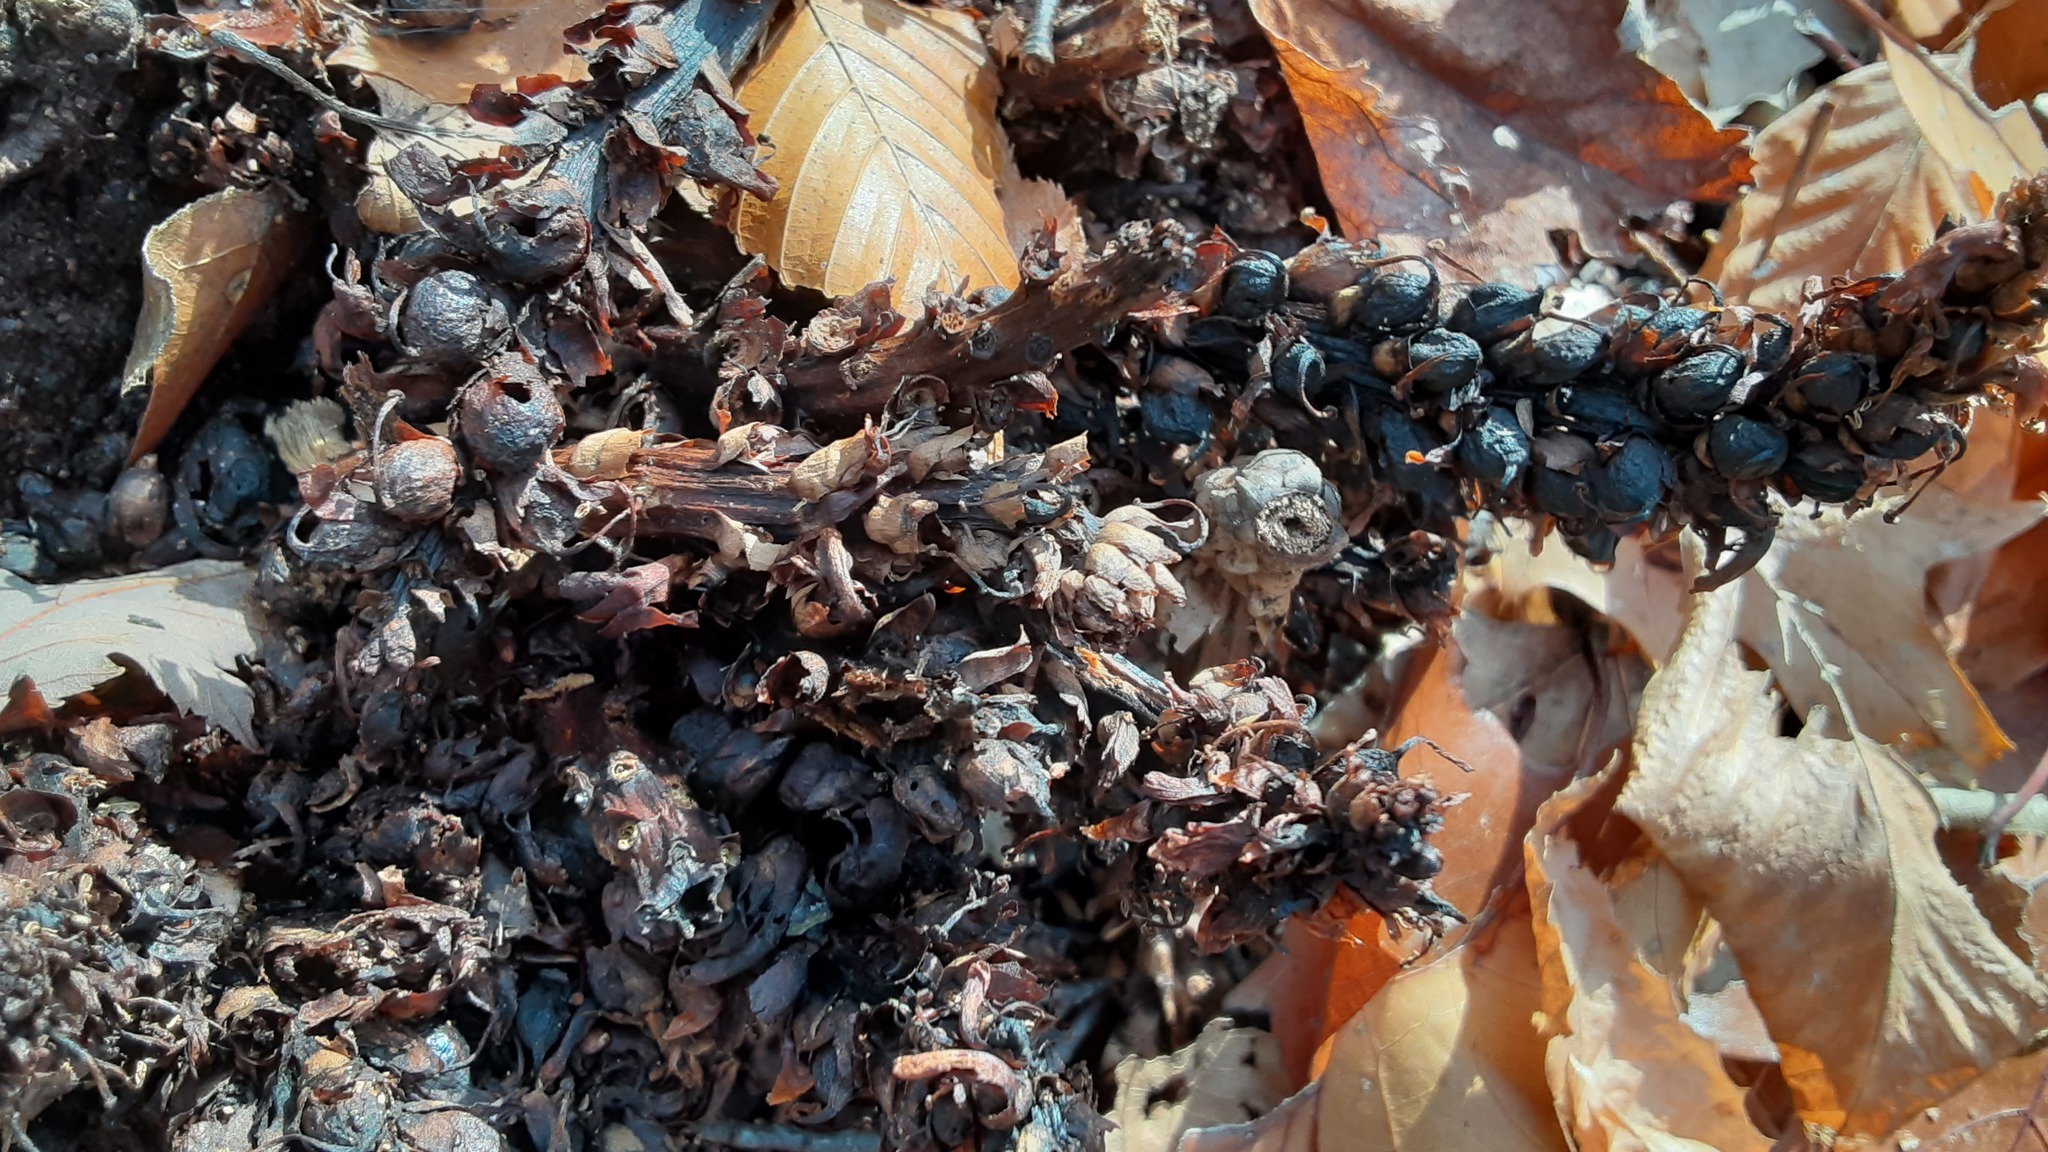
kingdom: Plantae
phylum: Tracheophyta
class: Magnoliopsida
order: Lamiales
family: Orobanchaceae
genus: Conopholis
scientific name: Conopholis americana
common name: American cancer-root
